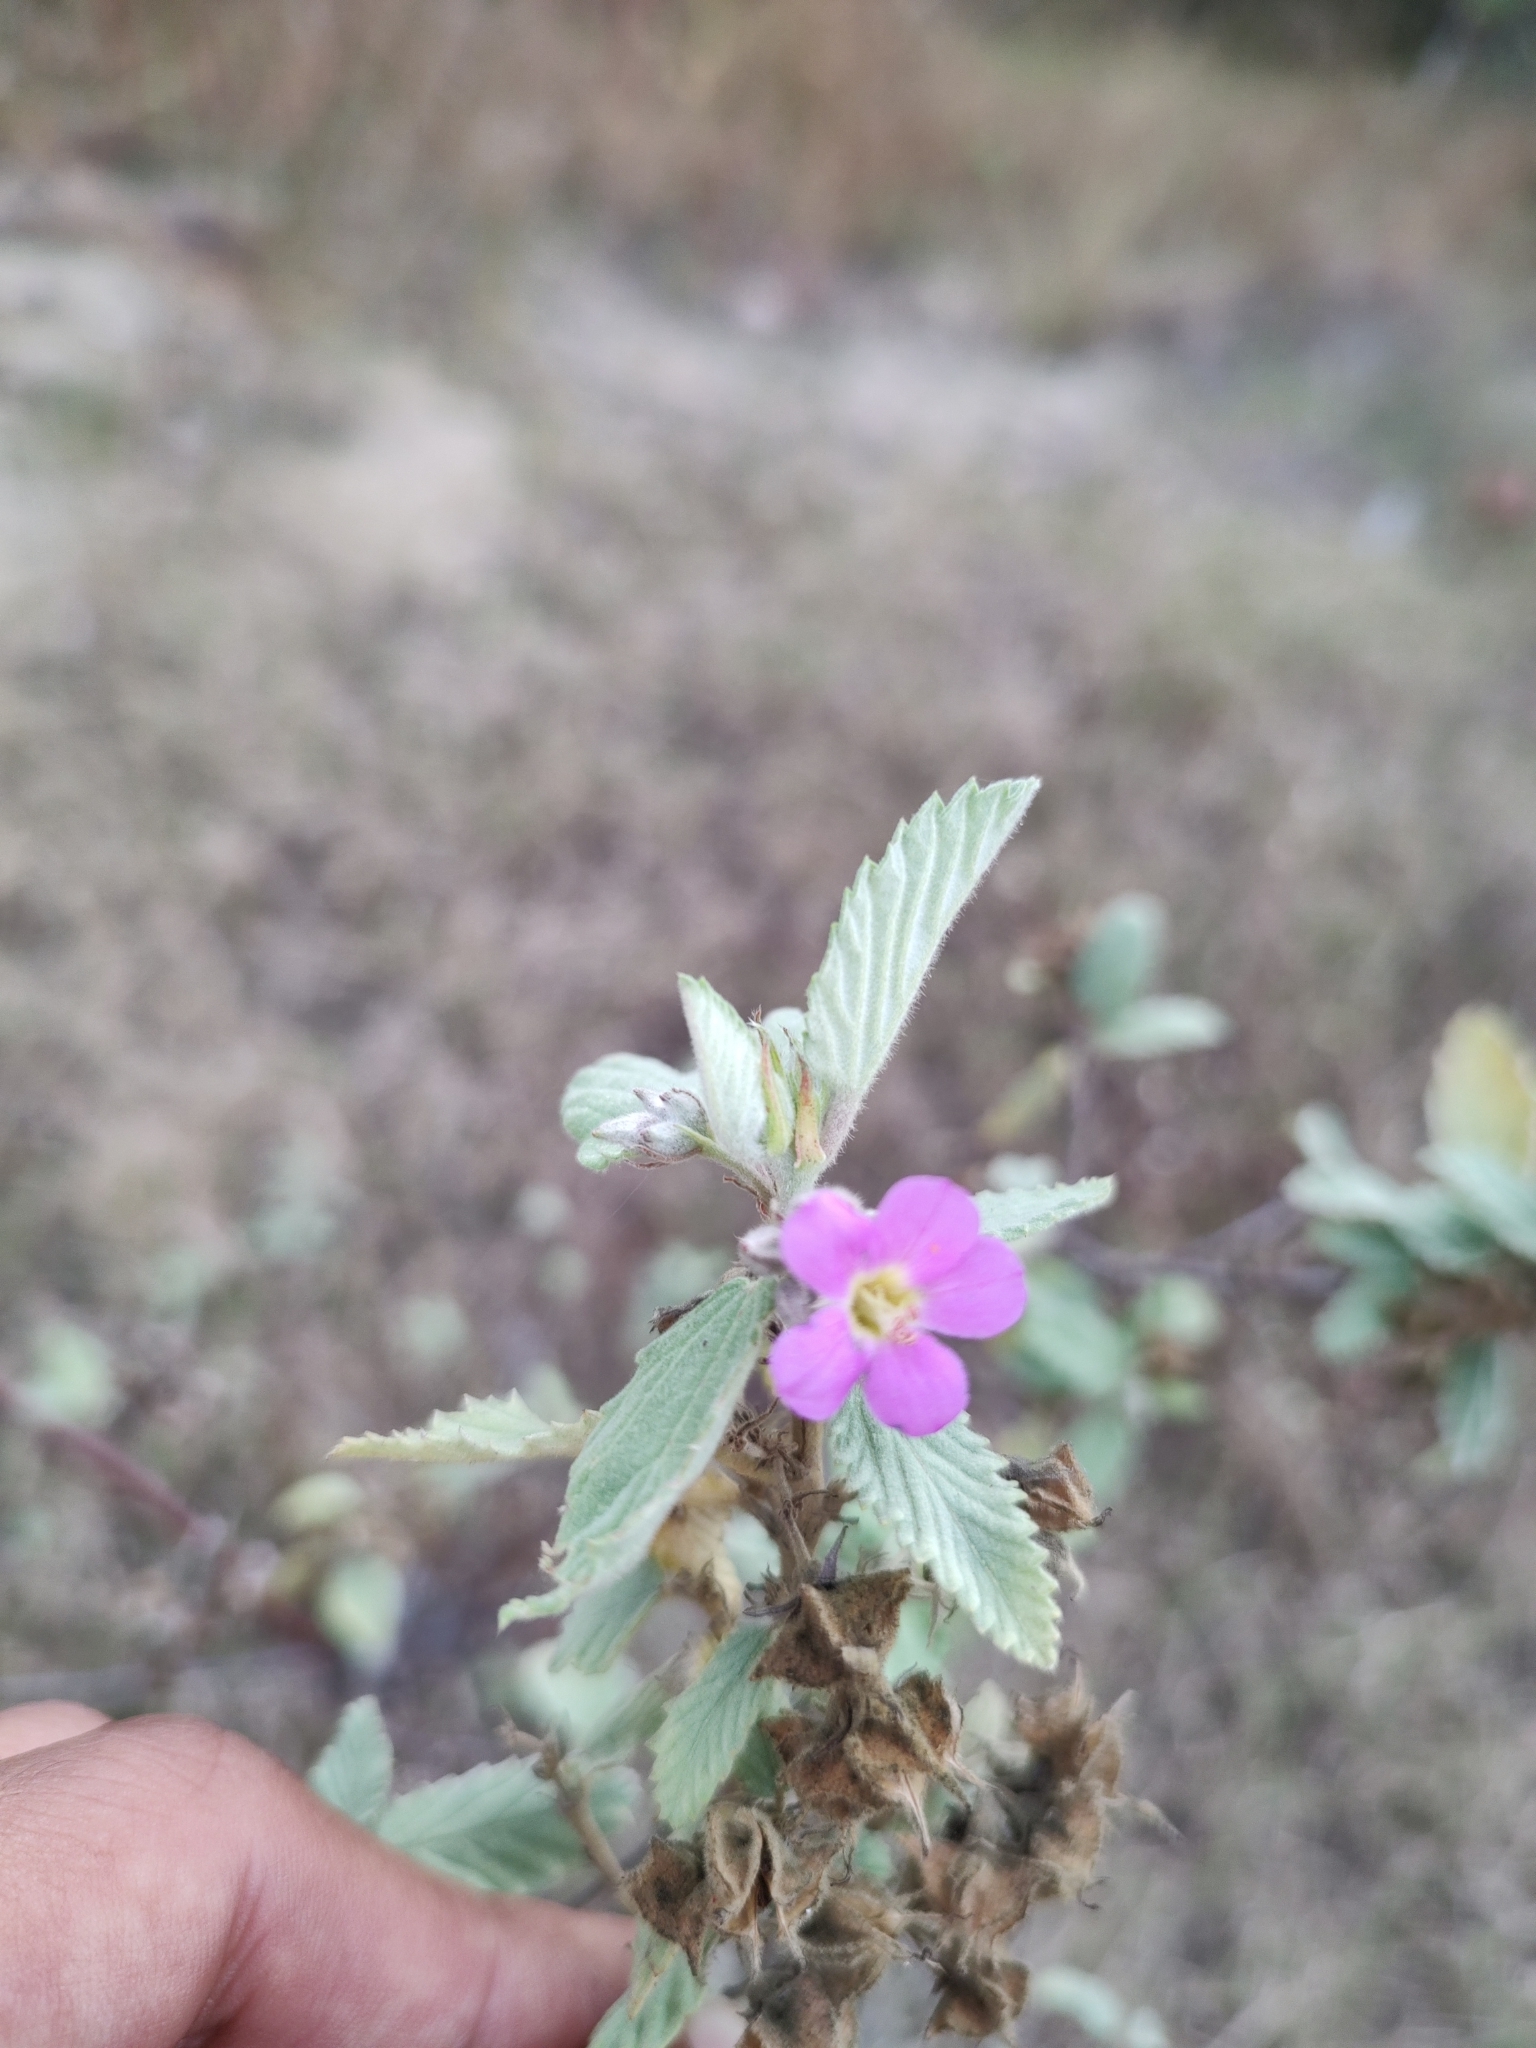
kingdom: Plantae
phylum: Tracheophyta
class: Magnoliopsida
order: Malvales
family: Malvaceae
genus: Melochia
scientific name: Melochia tomentosa
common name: Black torch
